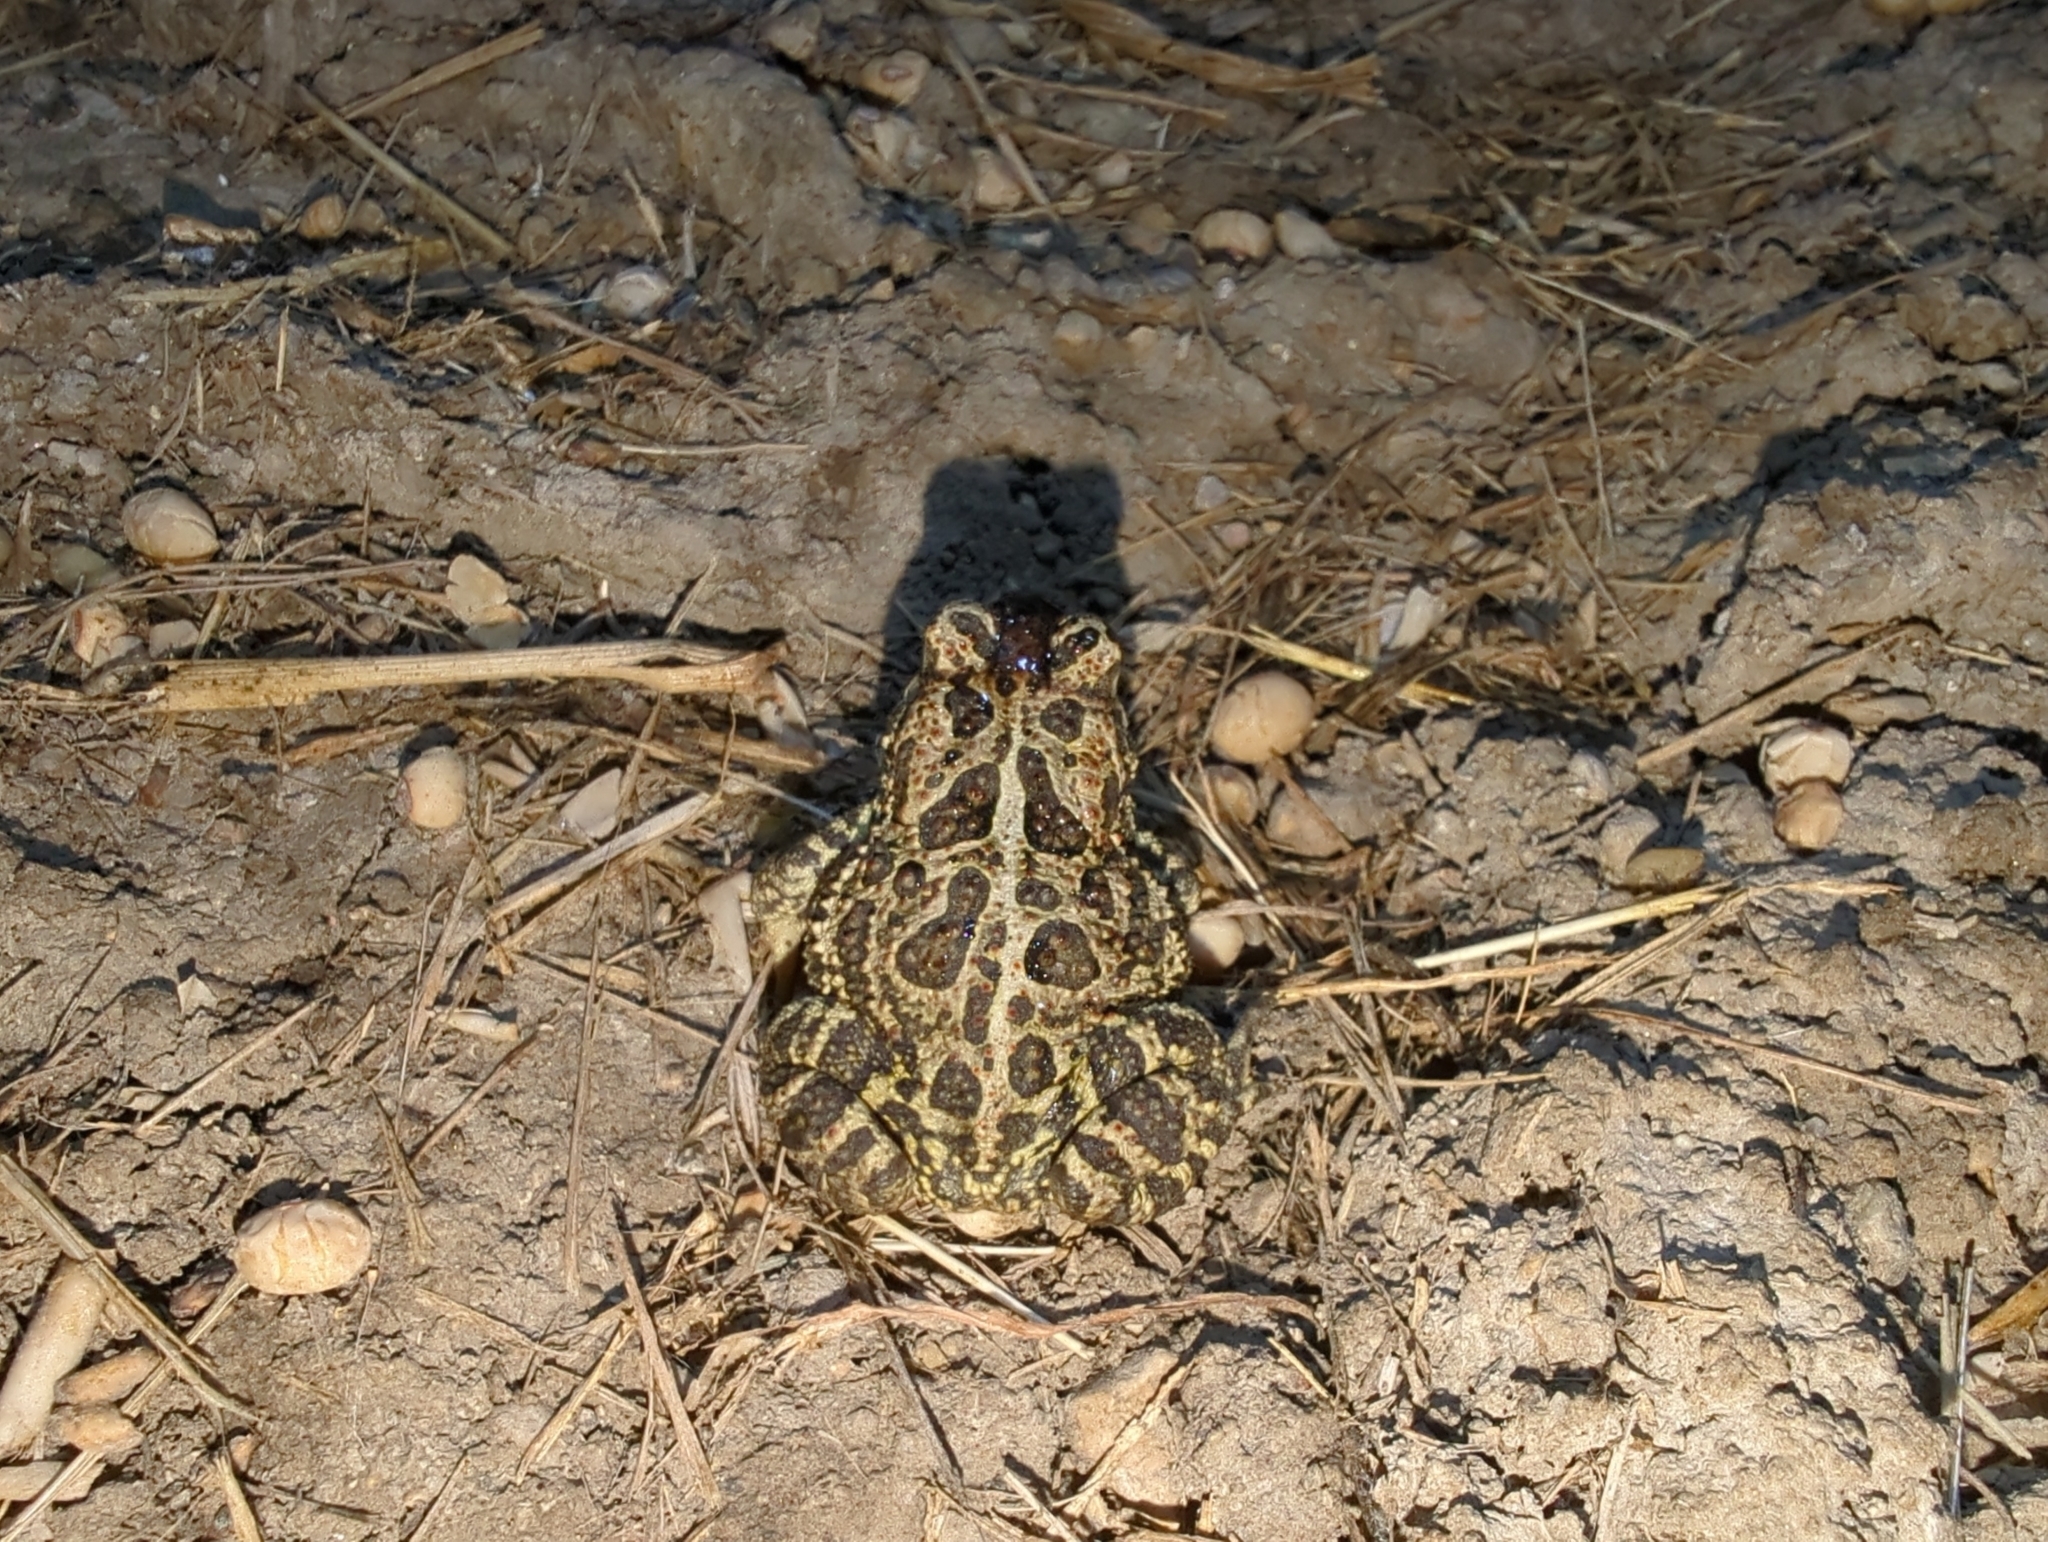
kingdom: Animalia
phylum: Chordata
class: Amphibia
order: Anura
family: Bufonidae
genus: Anaxyrus
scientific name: Anaxyrus hemiophrys
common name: Canadian toad
